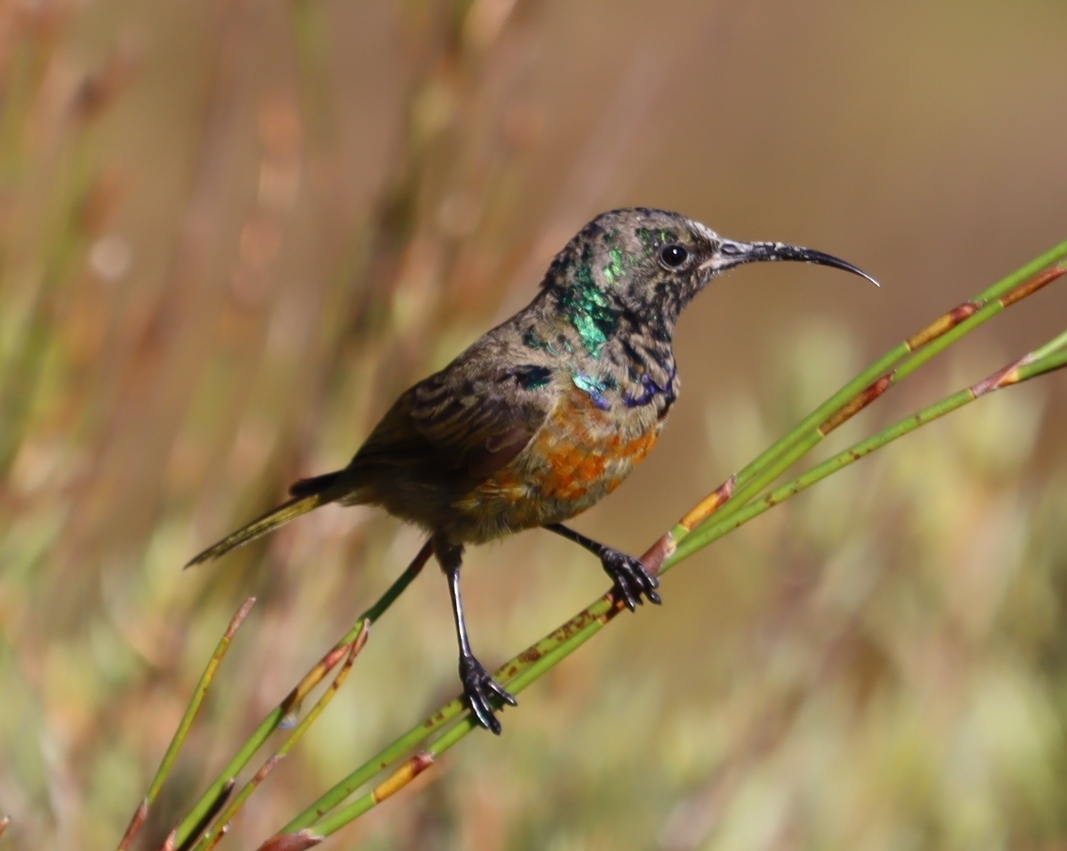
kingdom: Animalia
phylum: Chordata
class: Aves
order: Passeriformes
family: Nectariniidae
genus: Anthobaphes
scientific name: Anthobaphes violacea
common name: Orange-breasted sunbird
